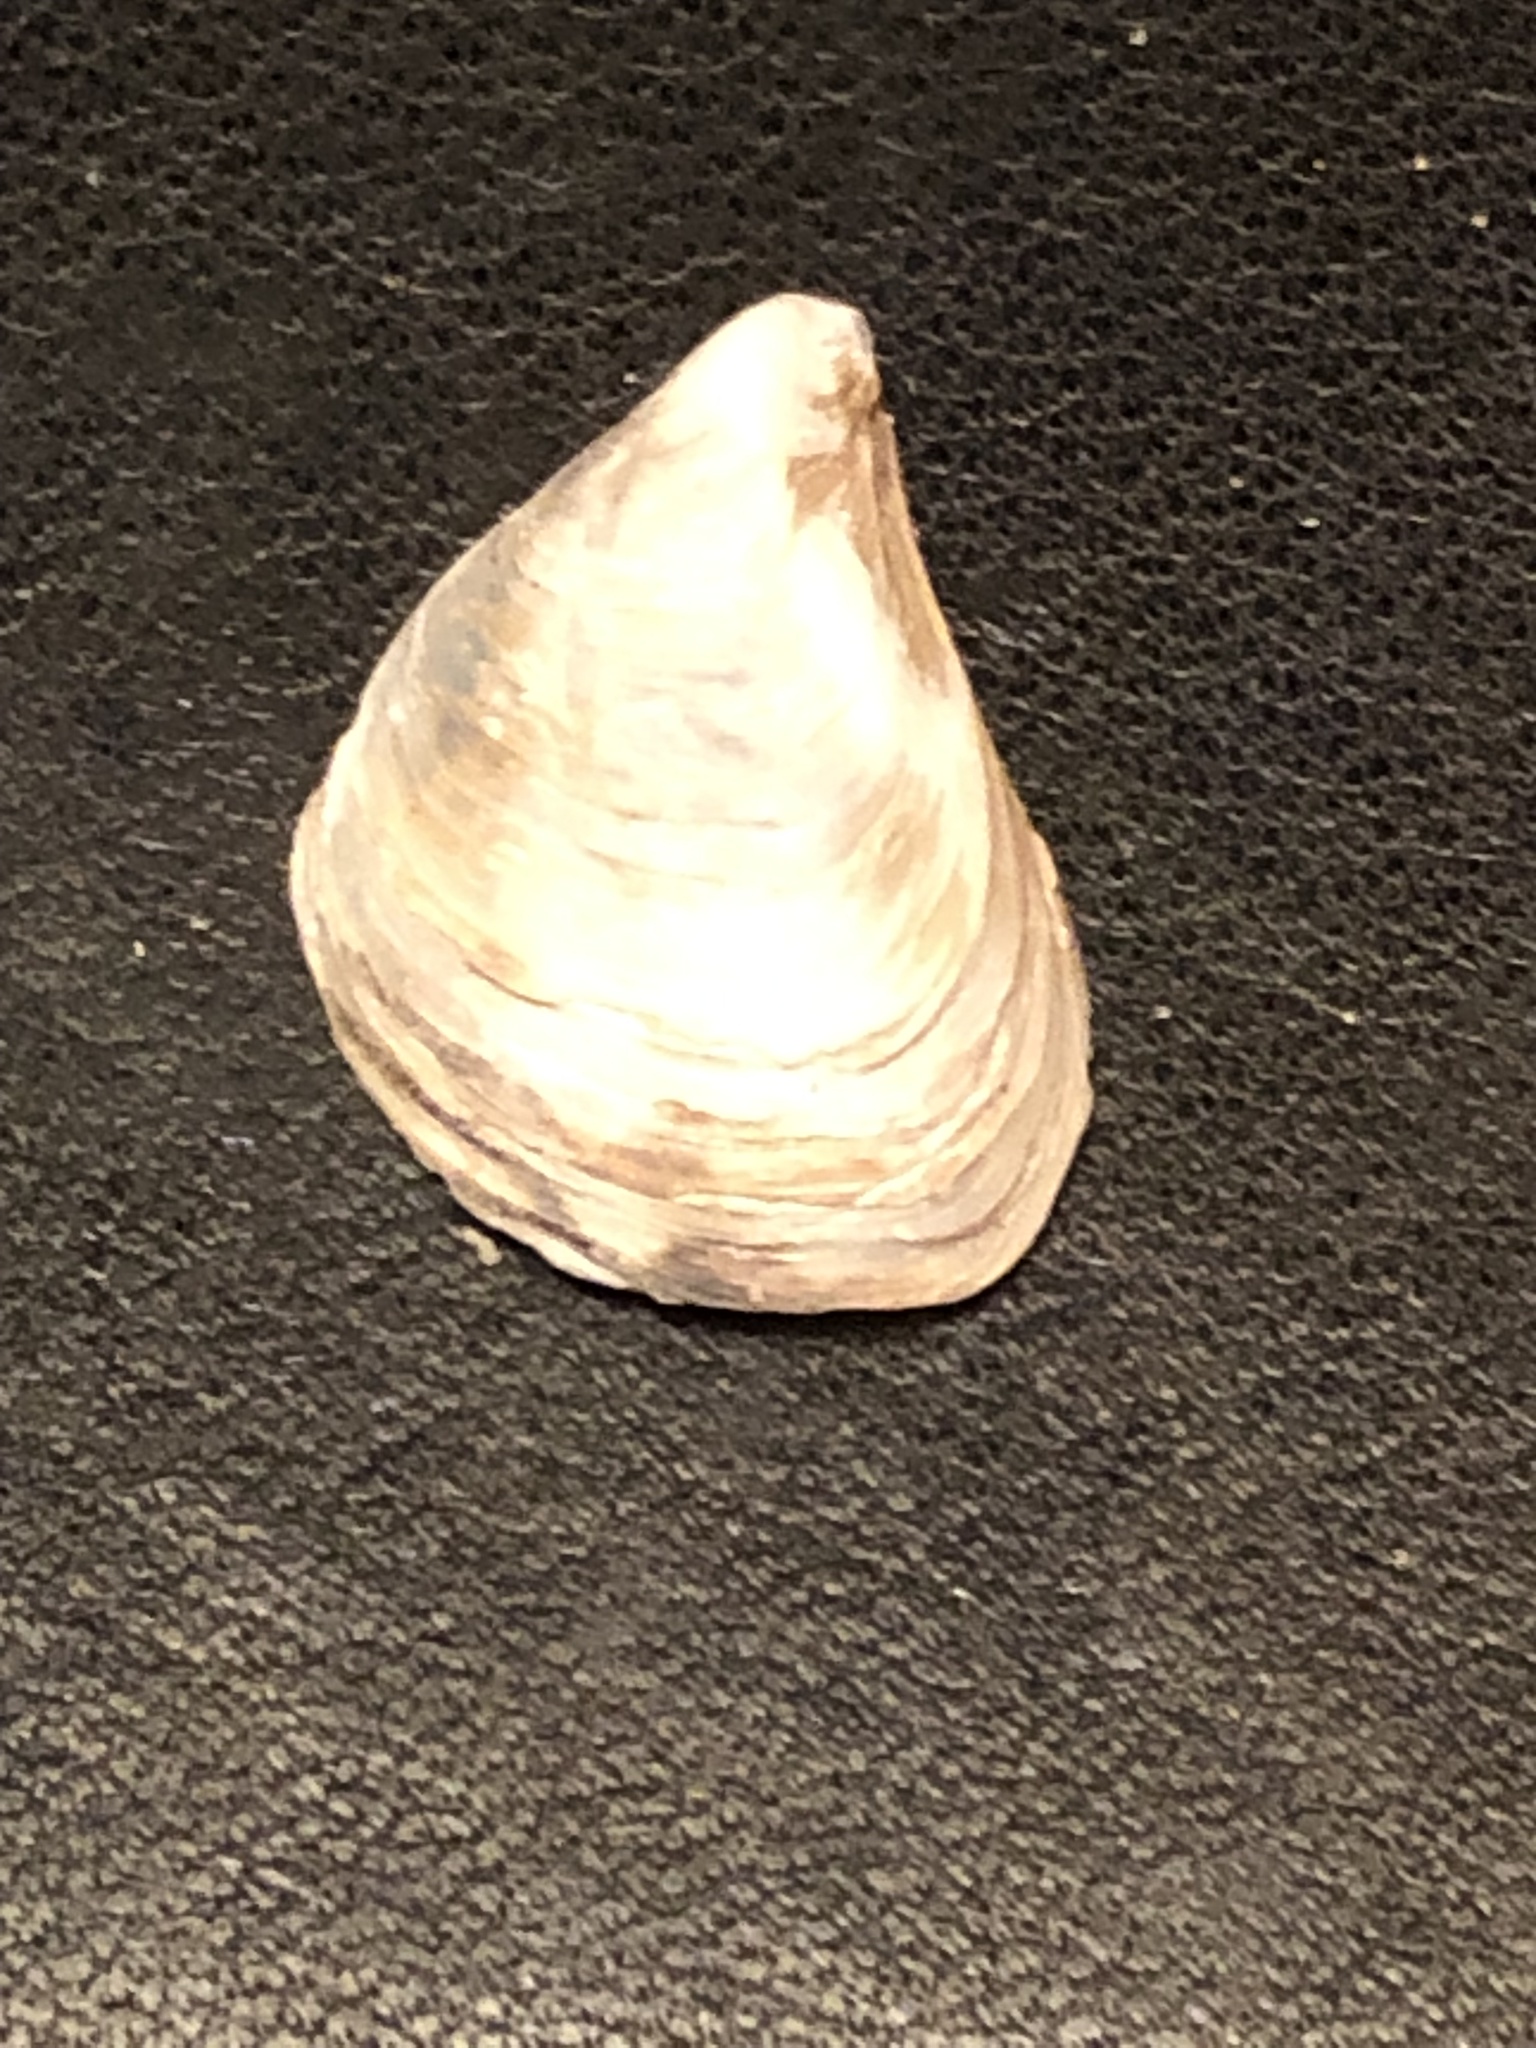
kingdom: Animalia
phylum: Mollusca
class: Bivalvia
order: Myida
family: Dreissenidae
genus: Dreissena
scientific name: Dreissena bugensis
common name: Quagga mussel
